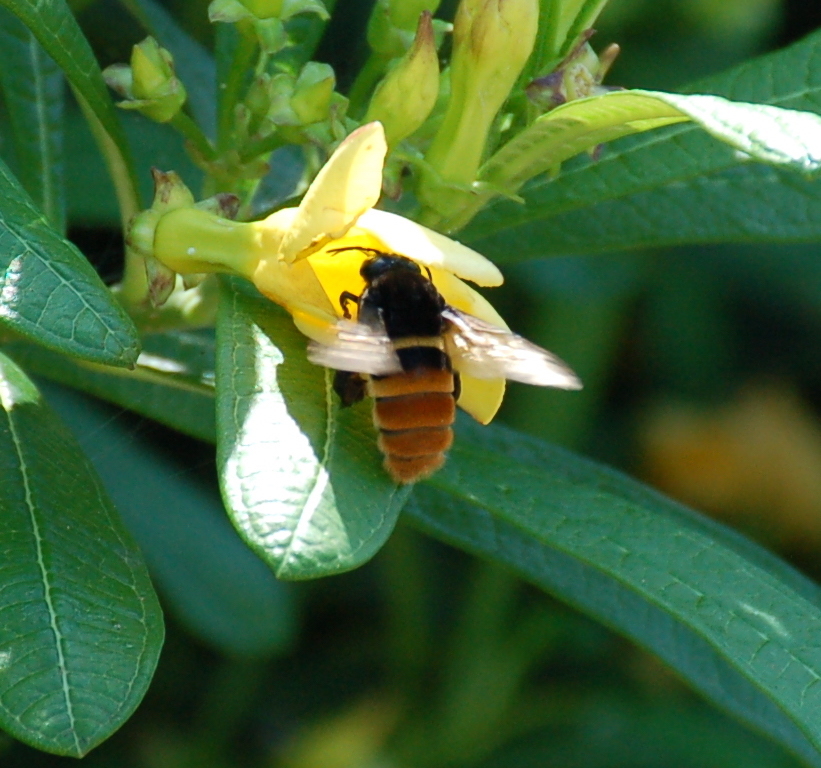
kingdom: Animalia
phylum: Arthropoda
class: Insecta
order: Hymenoptera
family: Apidae
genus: Eulaema
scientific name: Eulaema cingulata
